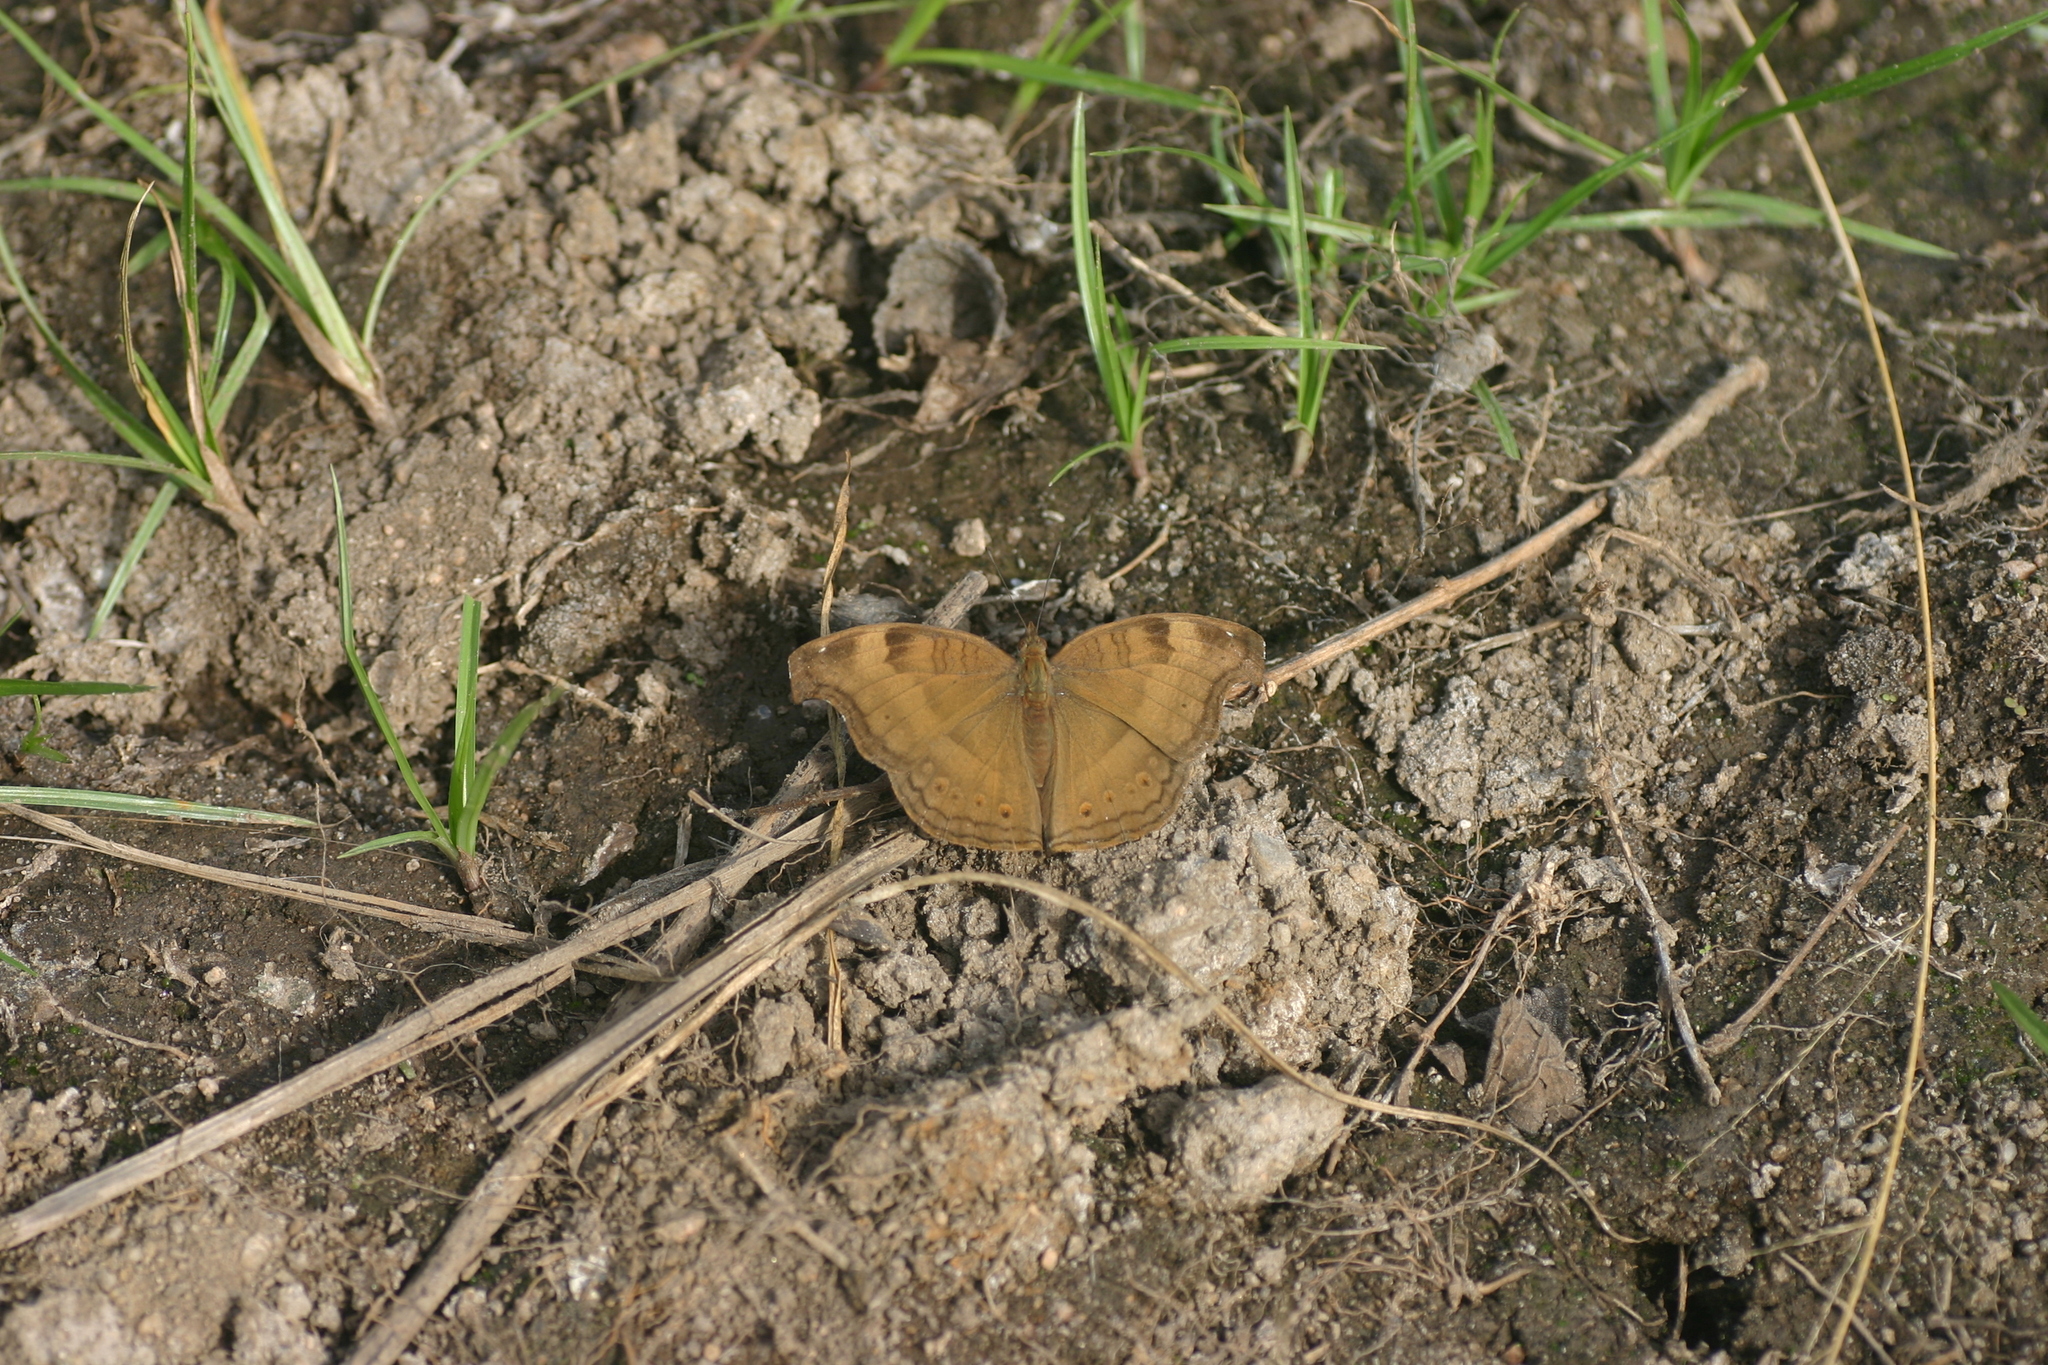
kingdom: Animalia
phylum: Arthropoda
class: Insecta
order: Lepidoptera
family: Nymphalidae
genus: Junonia
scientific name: Junonia iphita
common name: Chocolate pansy
